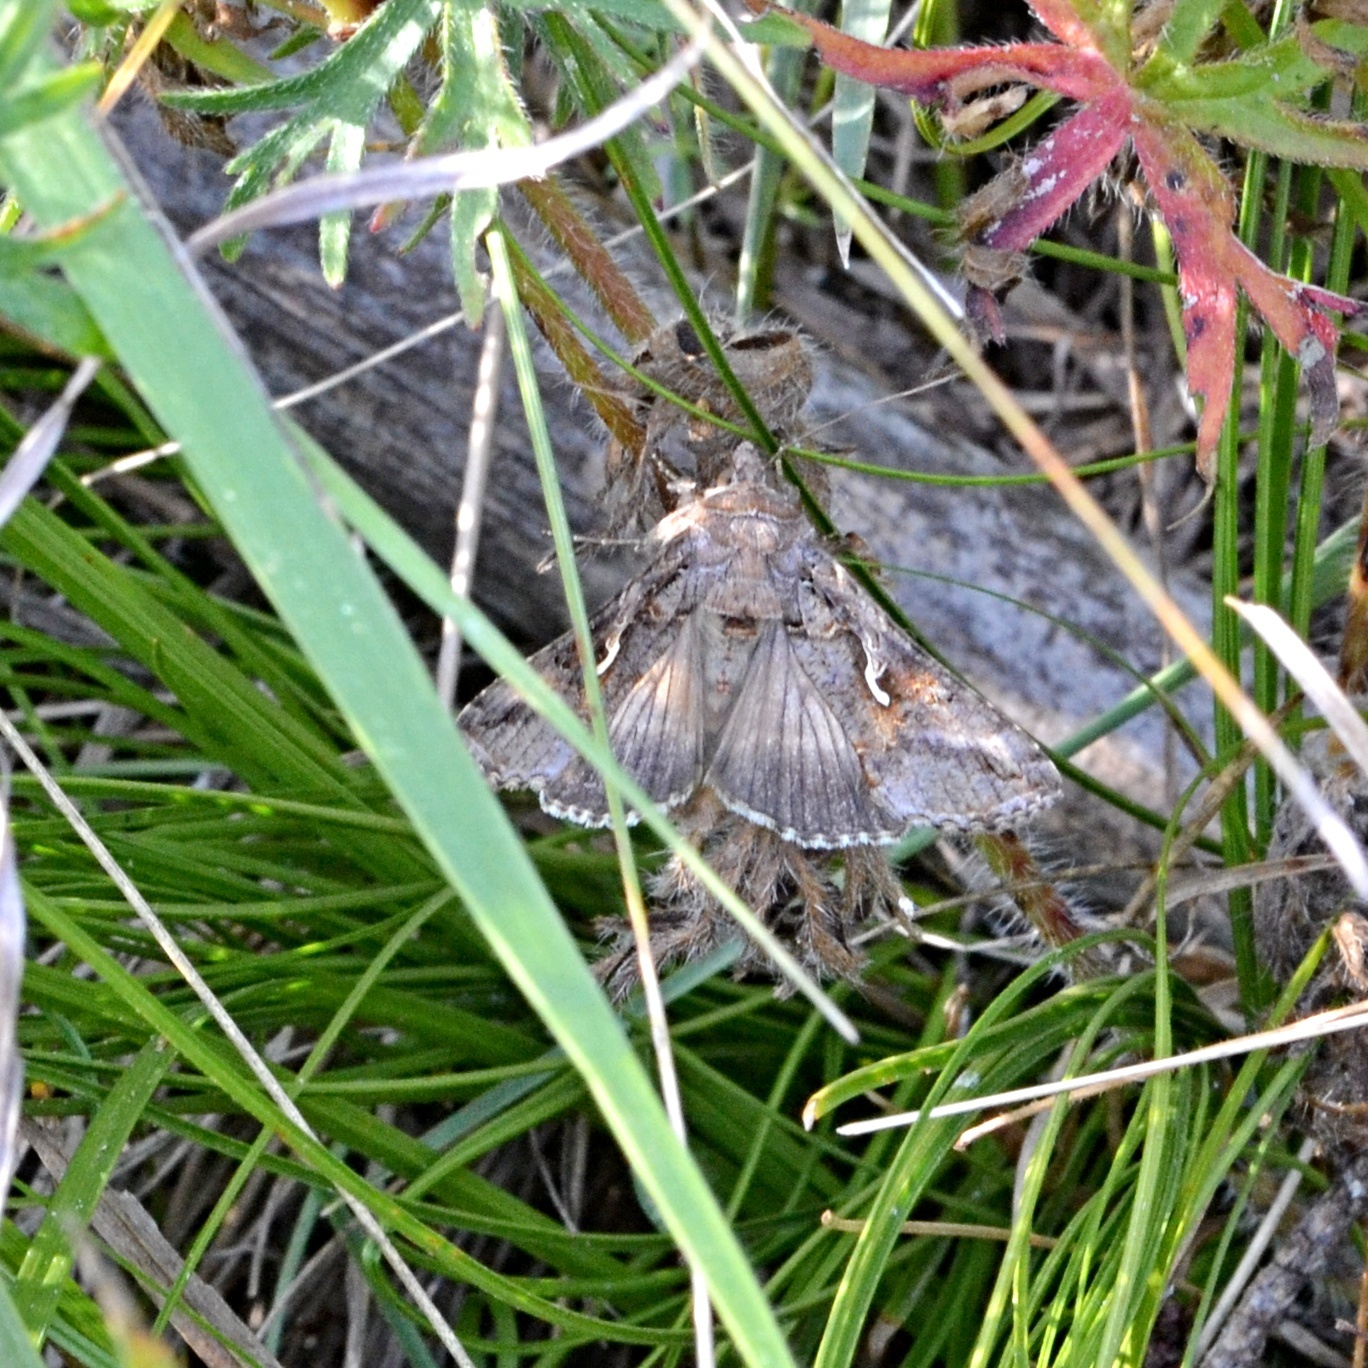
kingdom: Animalia
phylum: Arthropoda
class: Insecta
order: Lepidoptera
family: Noctuidae
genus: Autographa
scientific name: Autographa gamma
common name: Silver y
